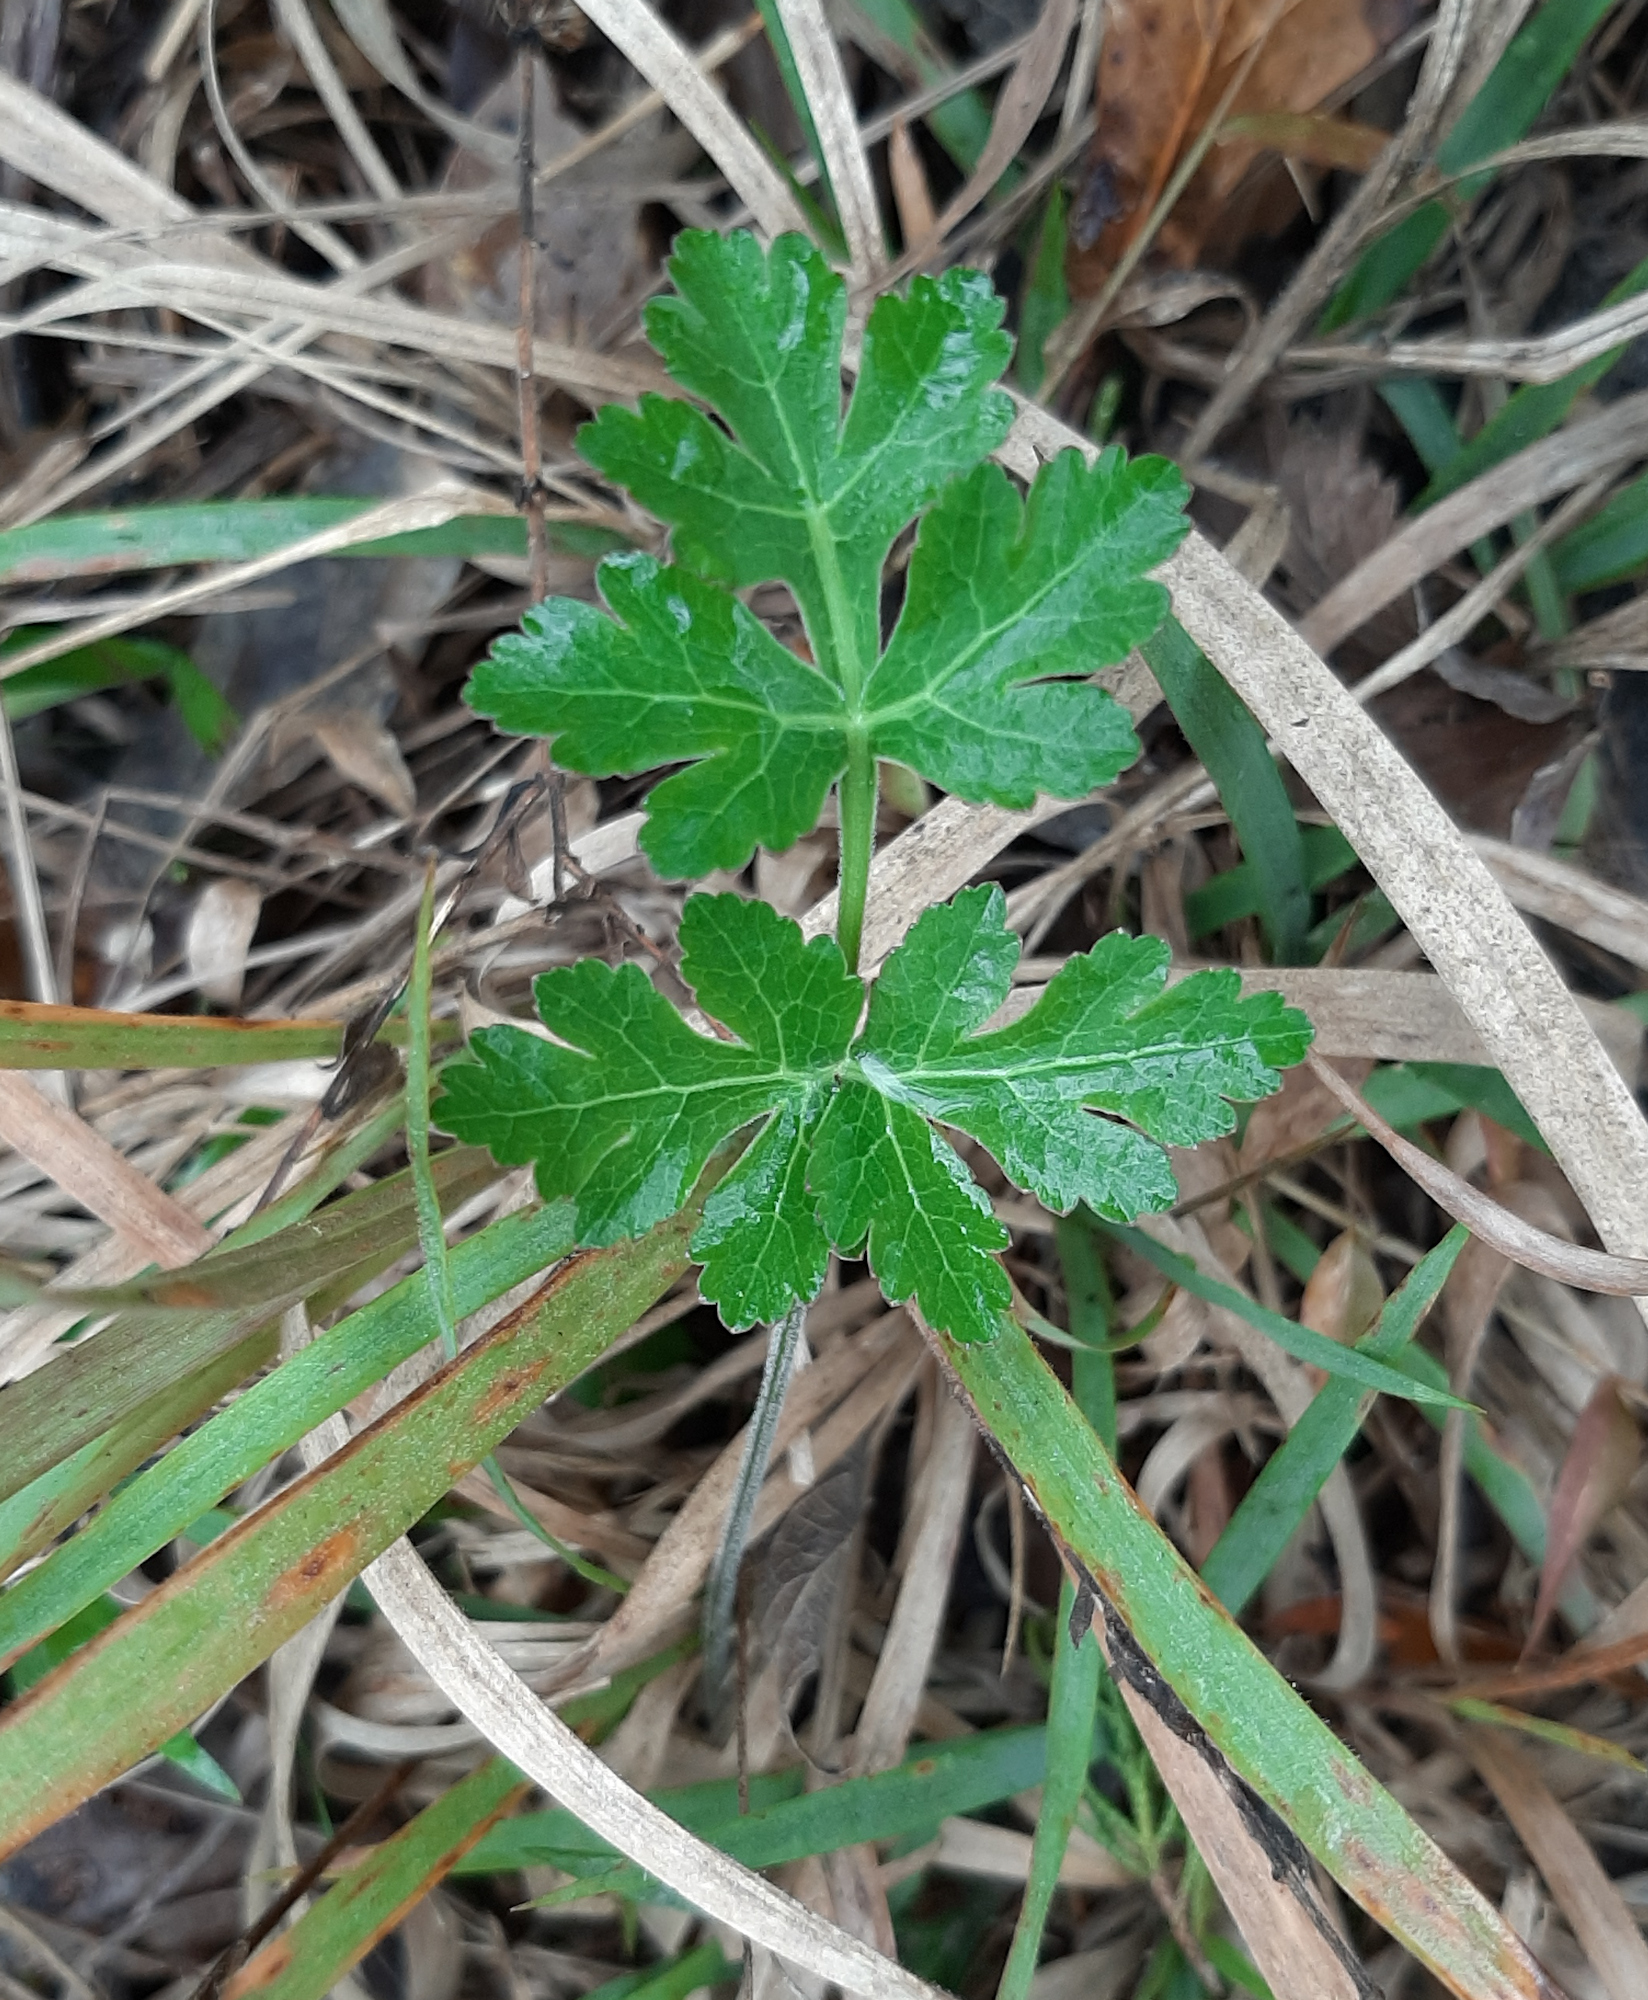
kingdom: Plantae
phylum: Tracheophyta
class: Magnoliopsida
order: Apiales
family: Apiaceae
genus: Polytaenia
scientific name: Polytaenia texana
